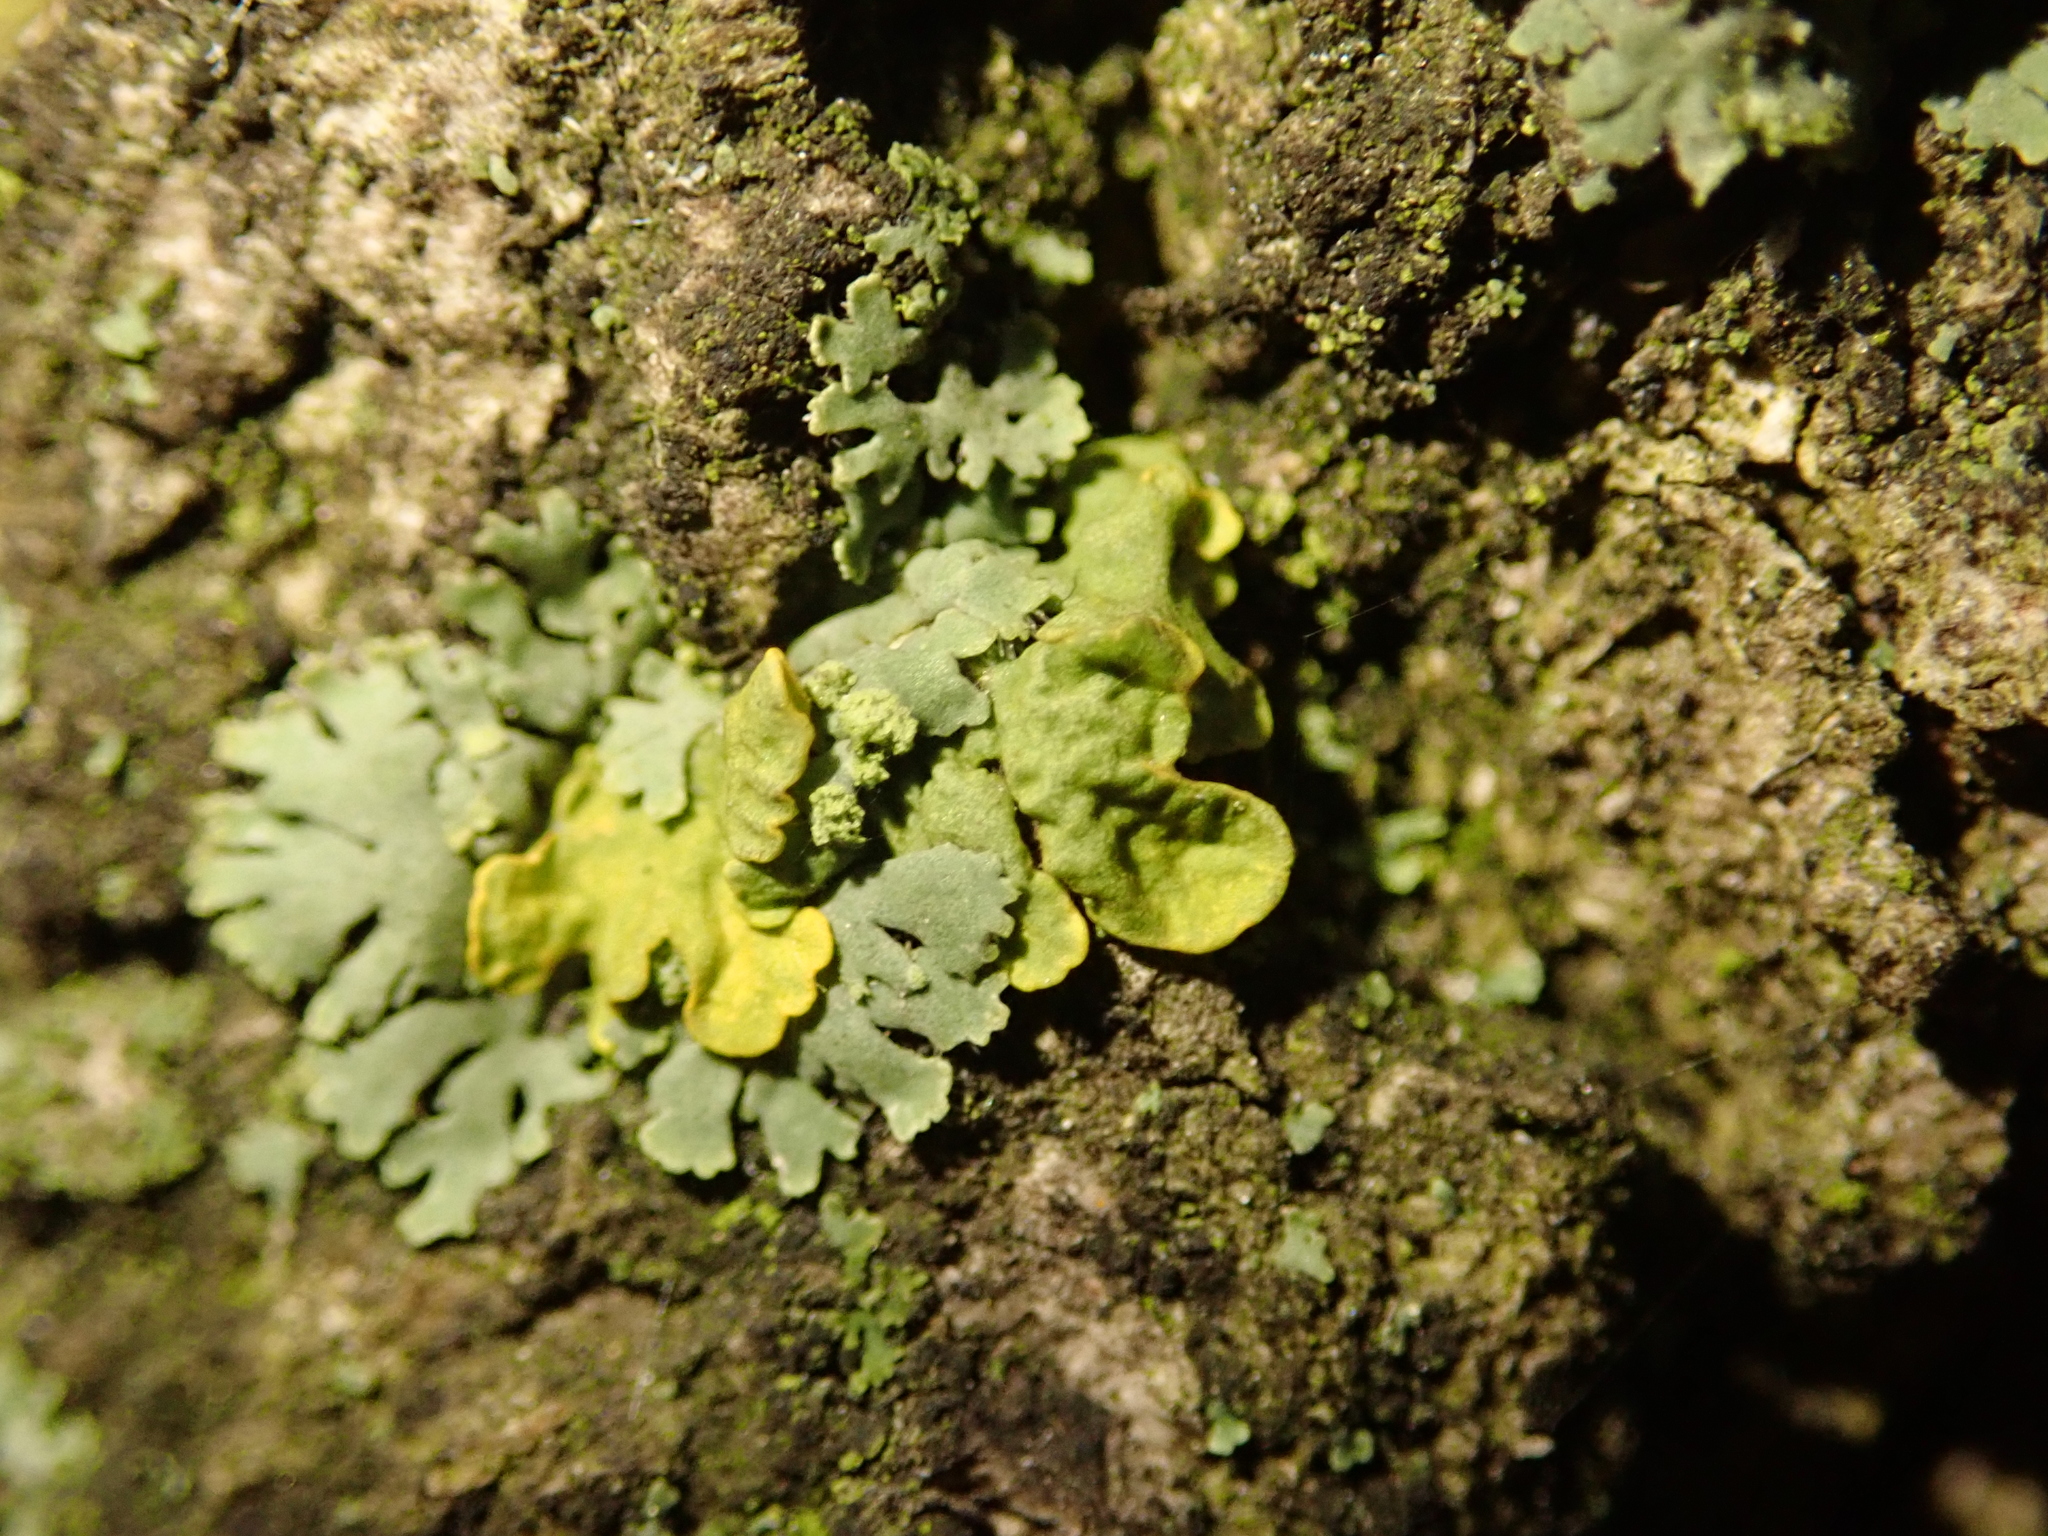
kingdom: Fungi
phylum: Ascomycota
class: Lecanoromycetes
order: Teloschistales
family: Teloschistaceae
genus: Xanthoria
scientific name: Xanthoria parietina
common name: Common orange lichen
